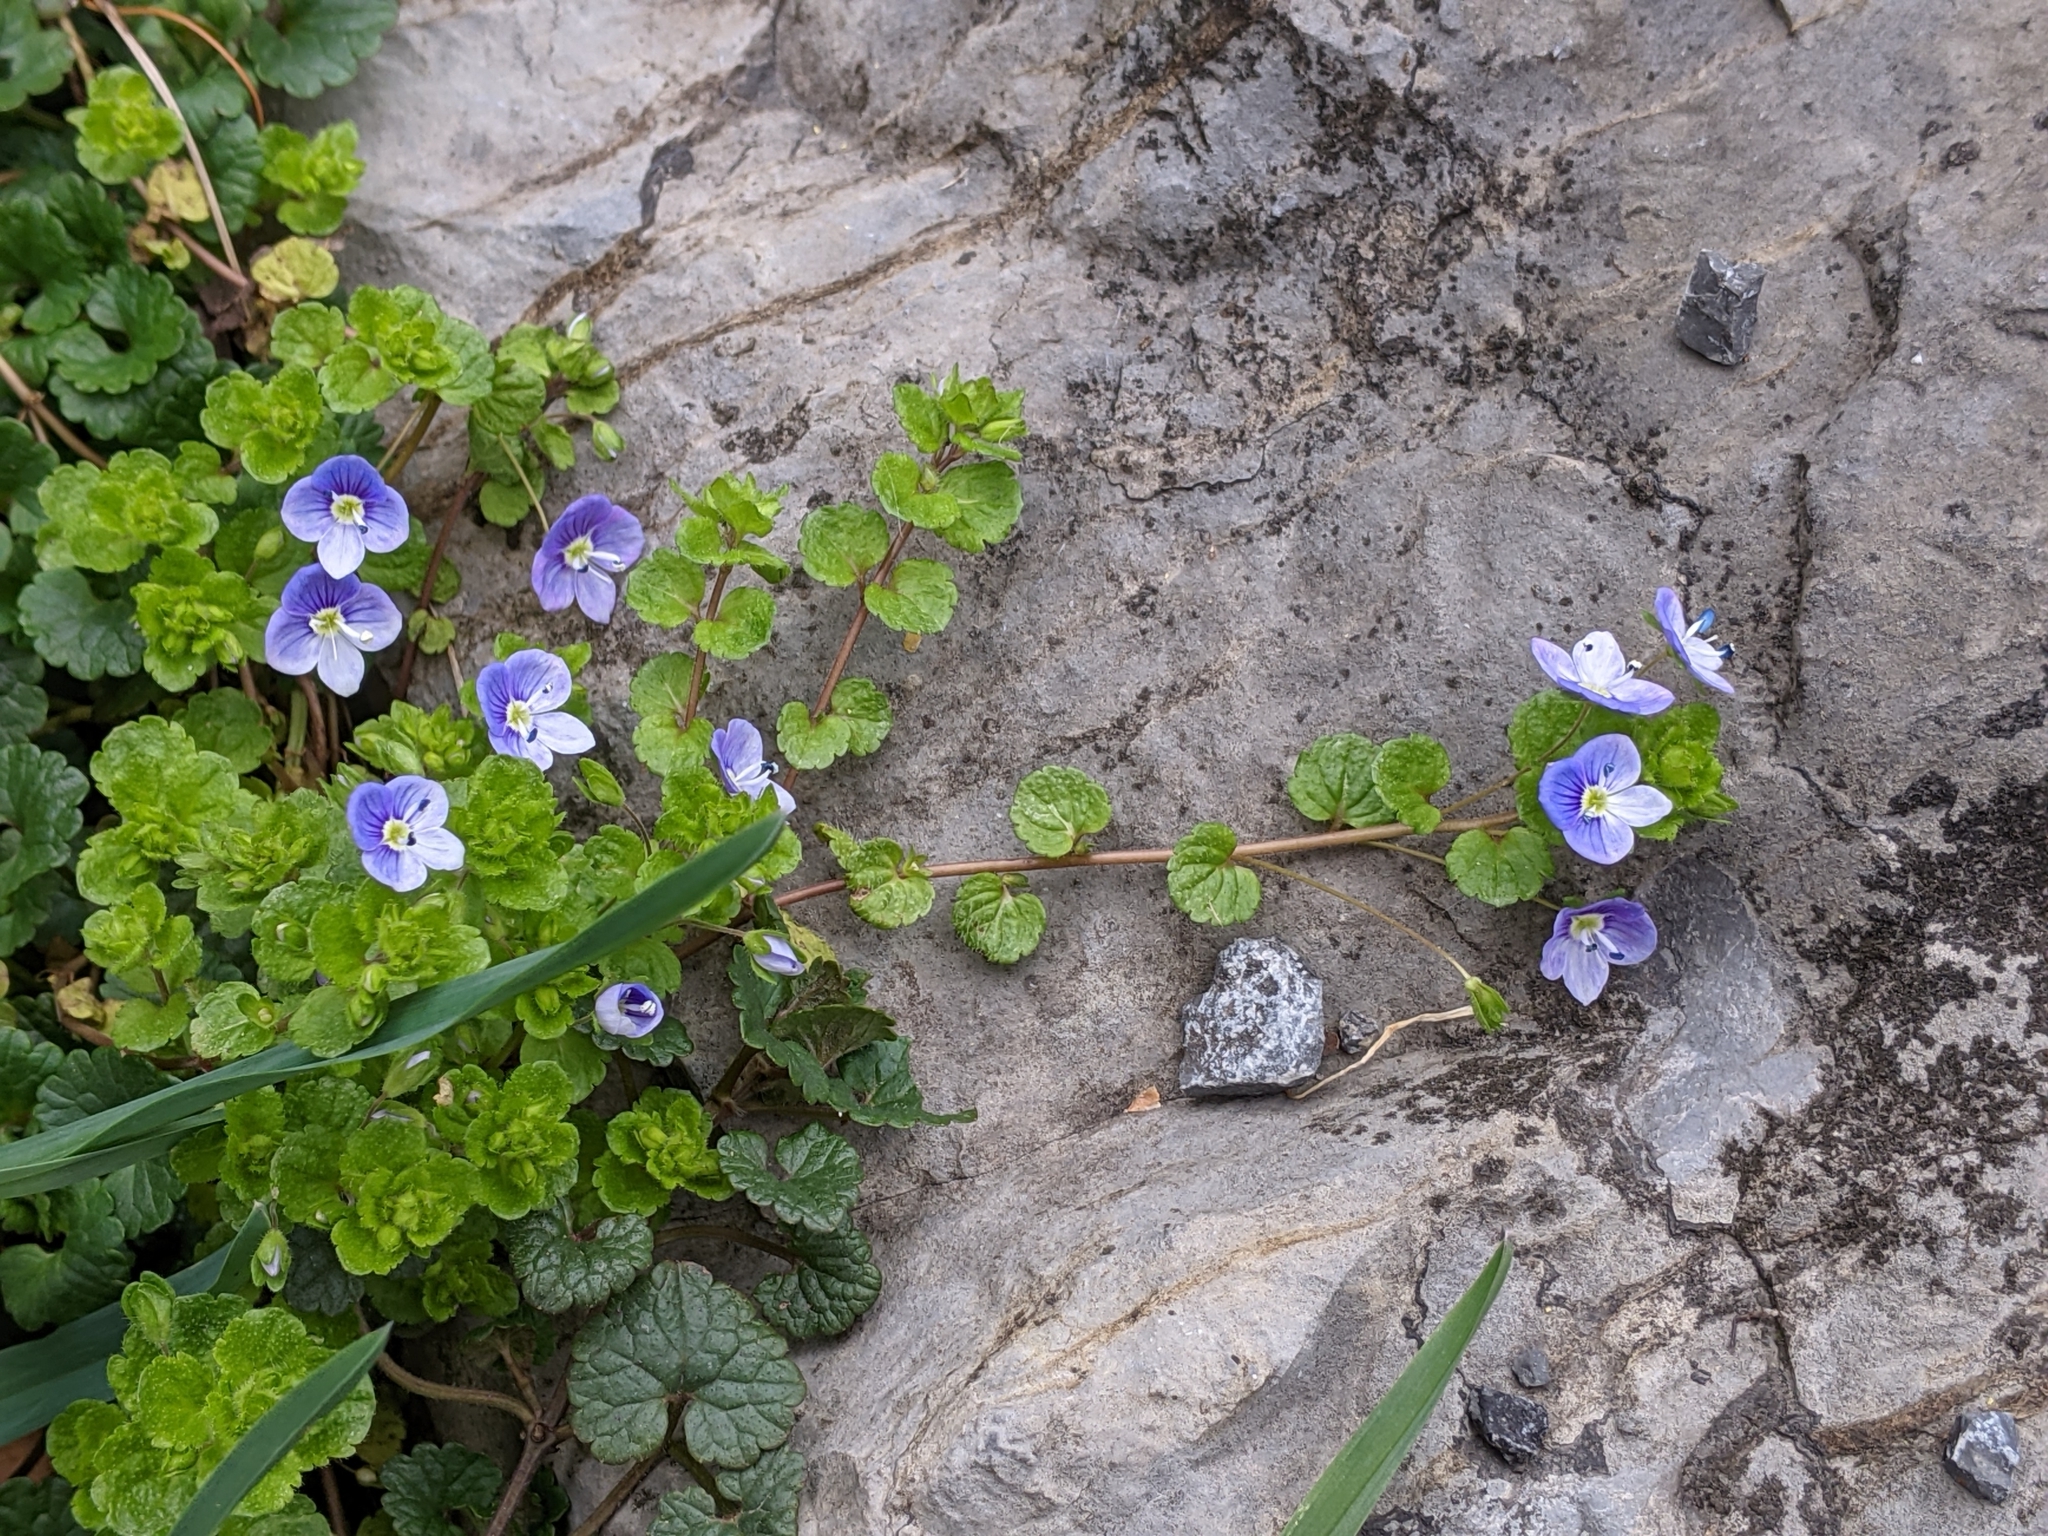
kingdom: Plantae
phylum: Tracheophyta
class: Magnoliopsida
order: Lamiales
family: Plantaginaceae
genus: Veronica
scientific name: Veronica filiformis
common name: Slender speedwell
